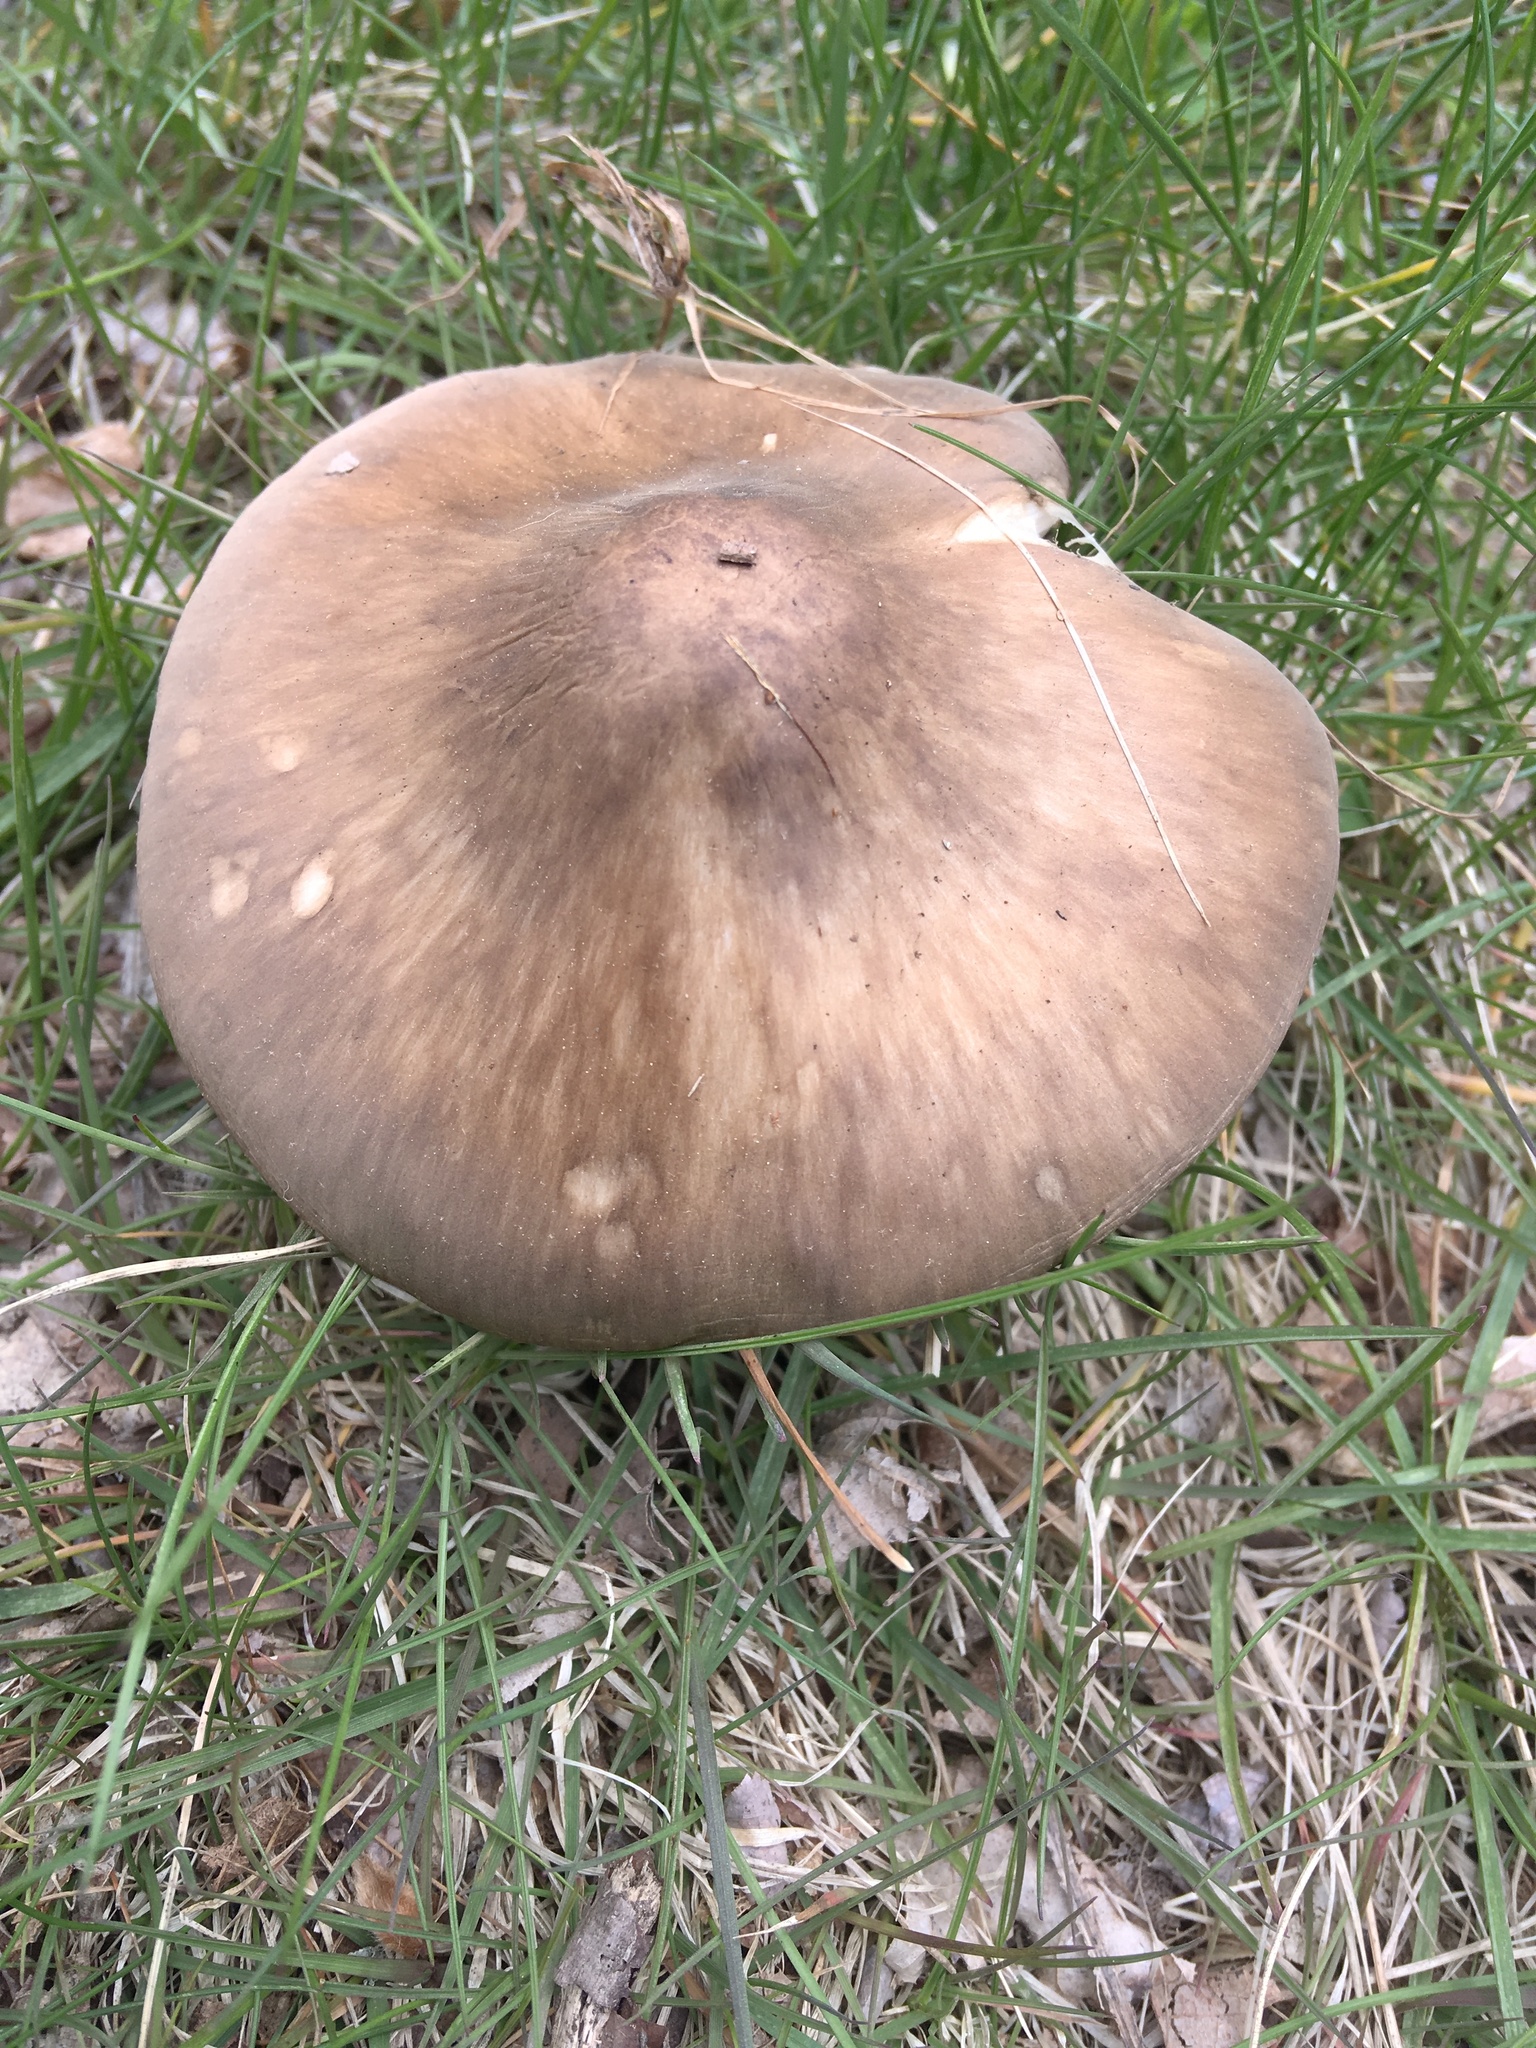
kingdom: Fungi
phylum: Basidiomycota
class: Agaricomycetes
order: Agaricales
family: Pluteaceae
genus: Pluteus
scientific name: Pluteus cervinus
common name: Deer shield
